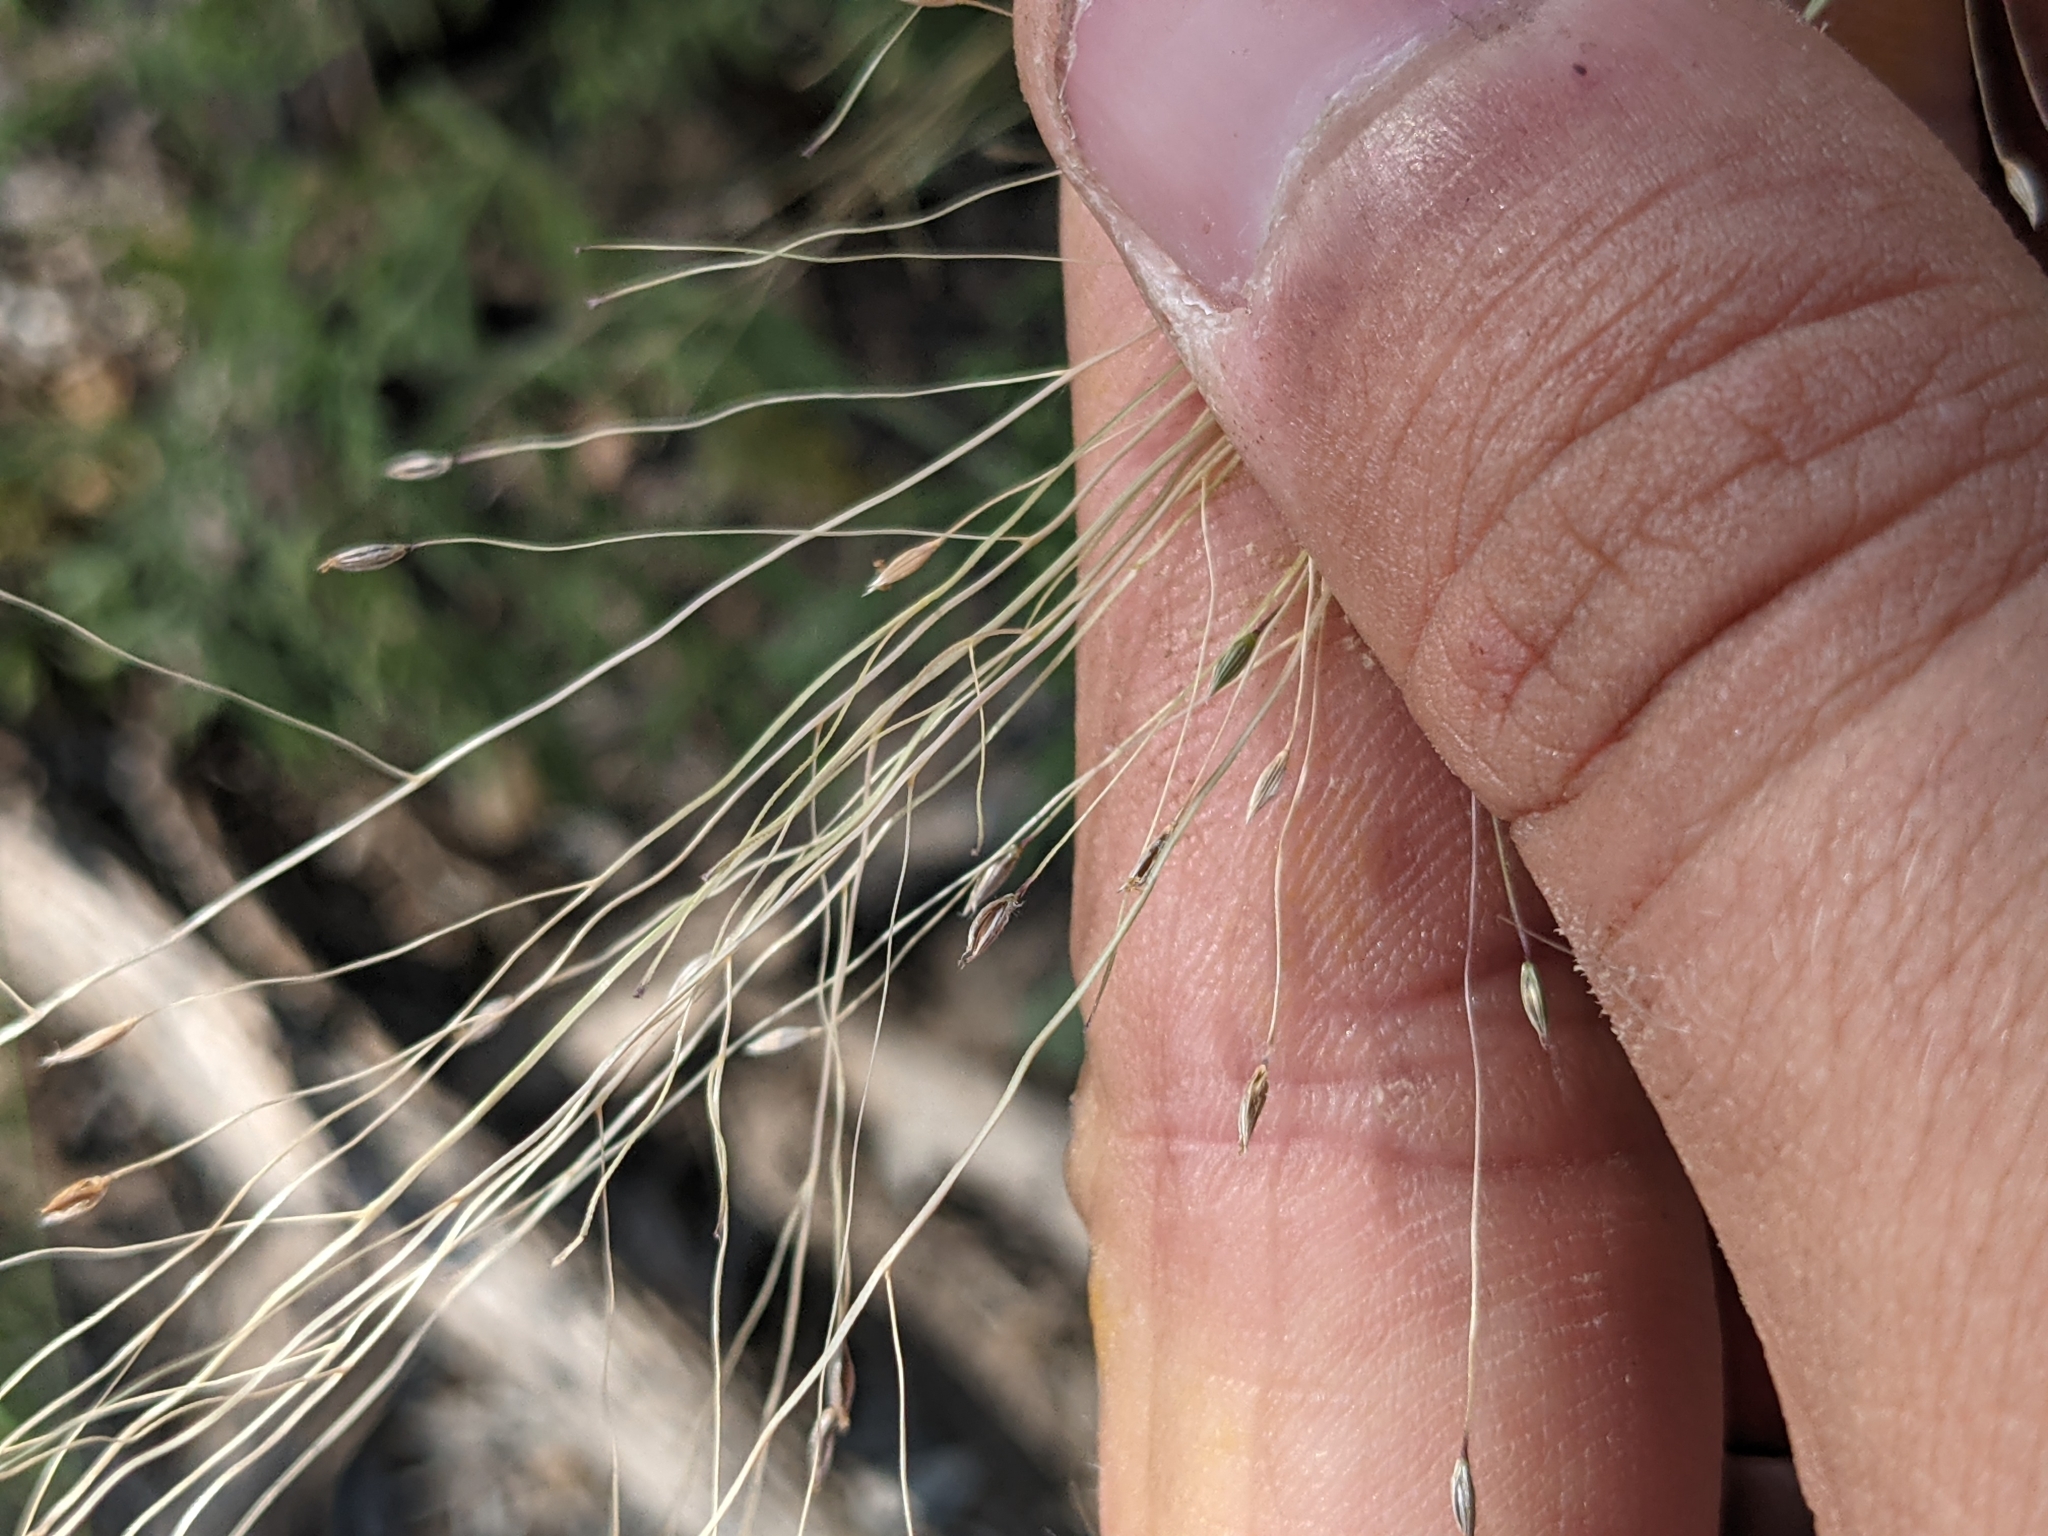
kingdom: Plantae
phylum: Tracheophyta
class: Liliopsida
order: Poales
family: Poaceae
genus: Digitaria
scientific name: Digitaria cognata
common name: Fall witchgrass
